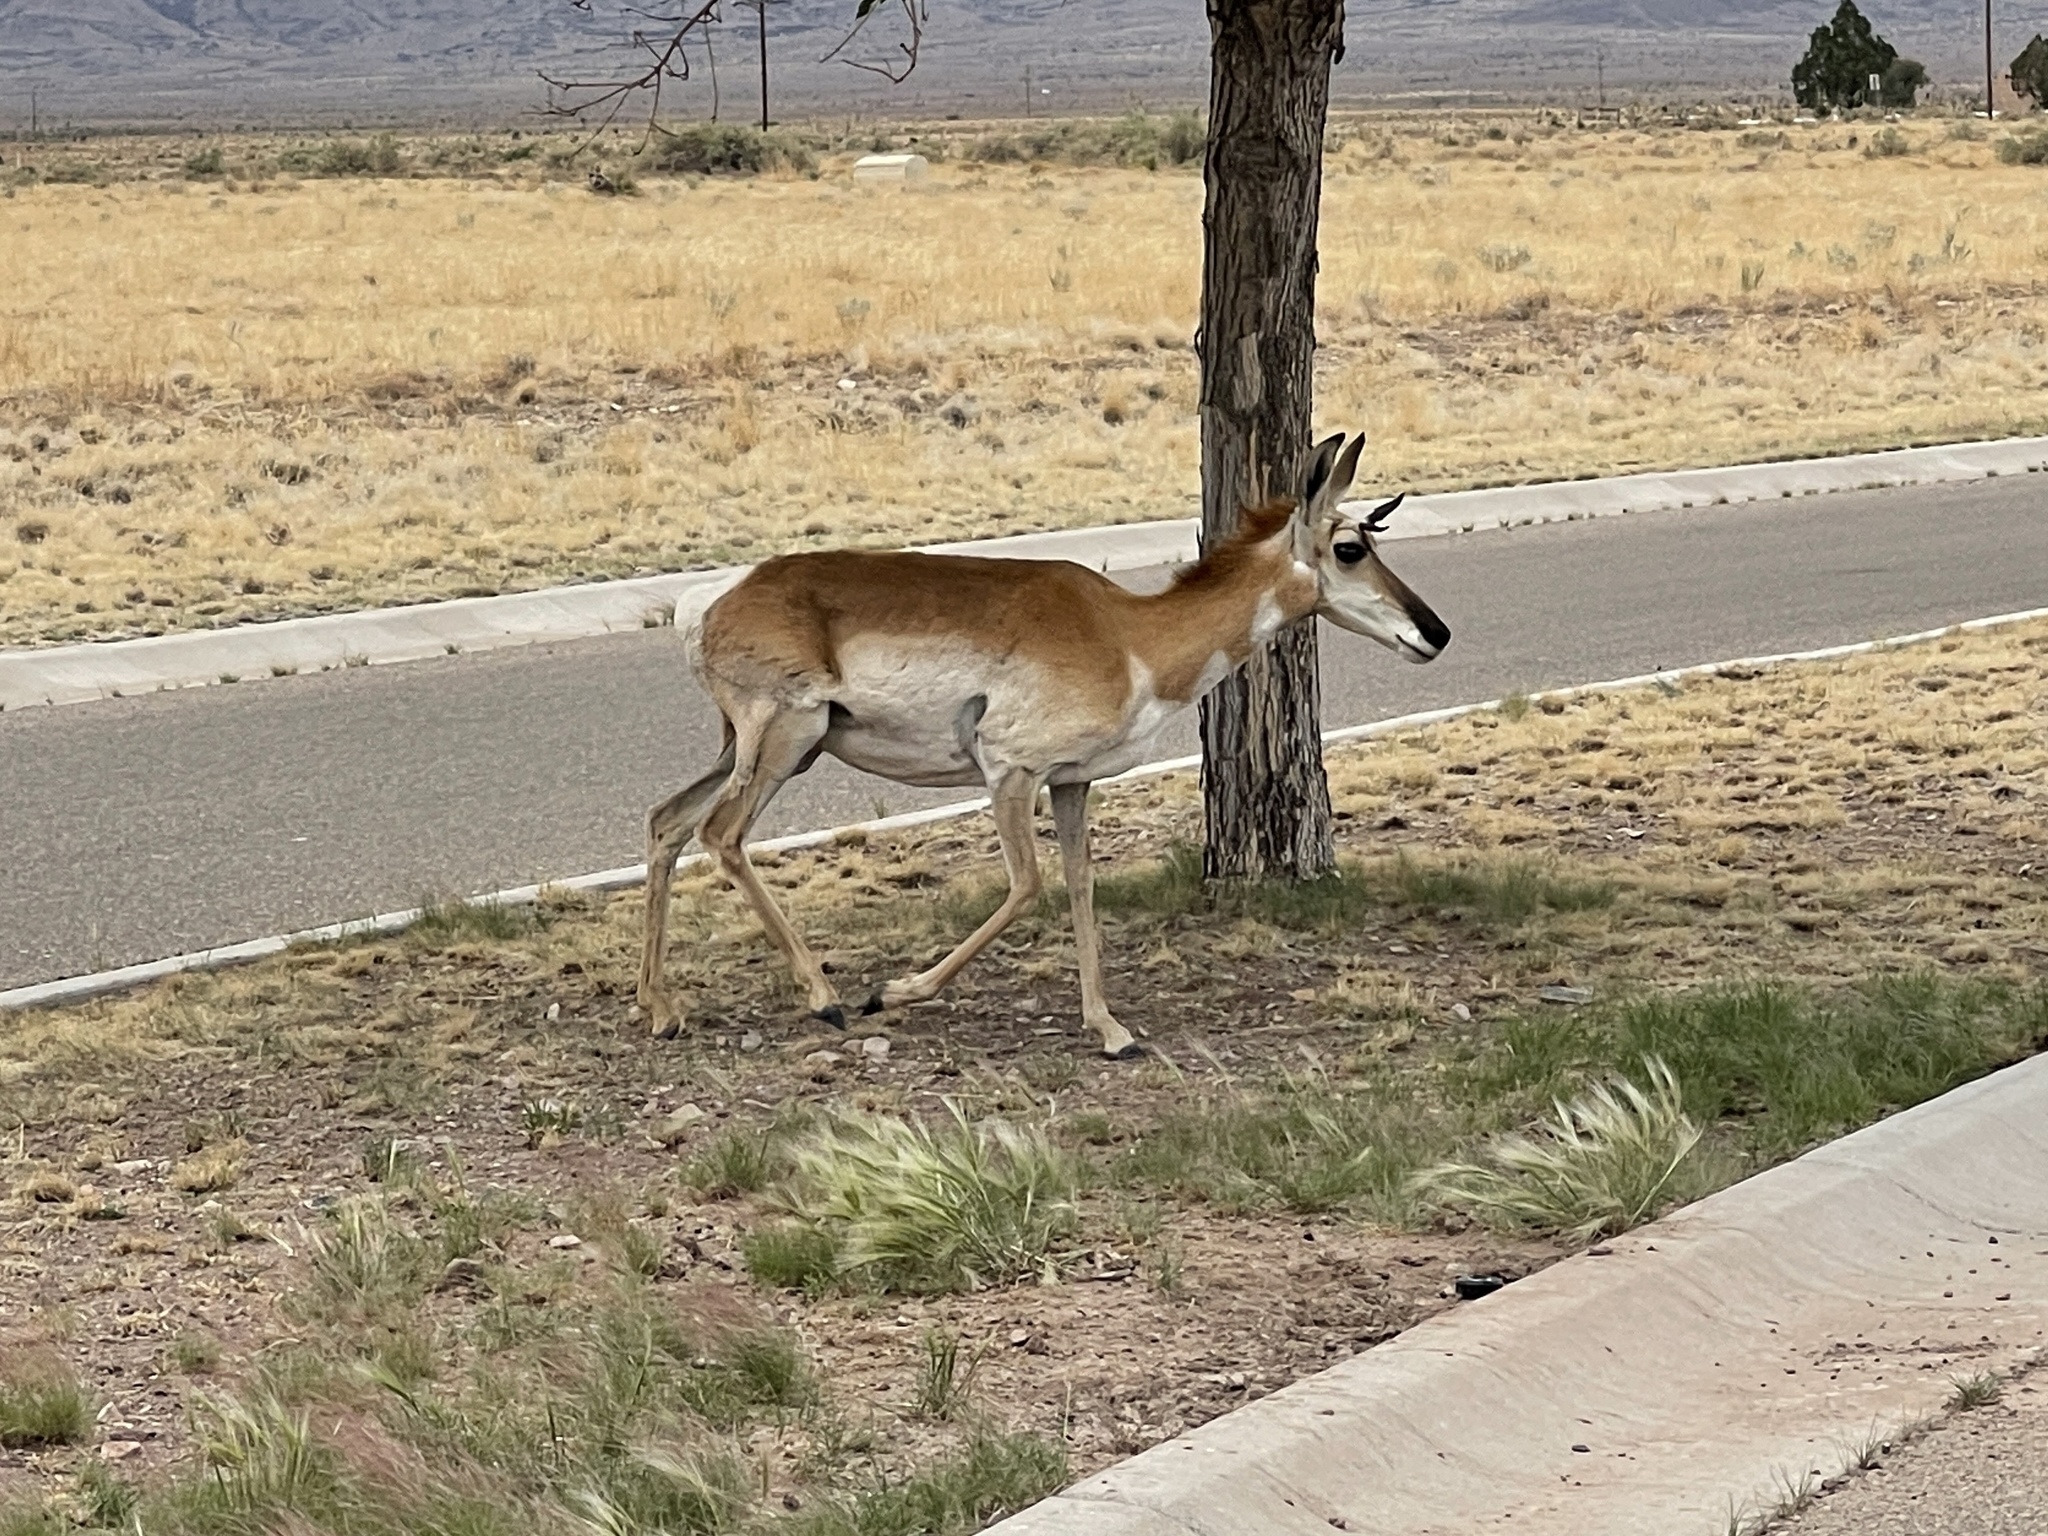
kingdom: Animalia
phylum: Chordata
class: Mammalia
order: Artiodactyla
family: Antilocapridae
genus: Antilocapra
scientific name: Antilocapra americana
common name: Pronghorn
